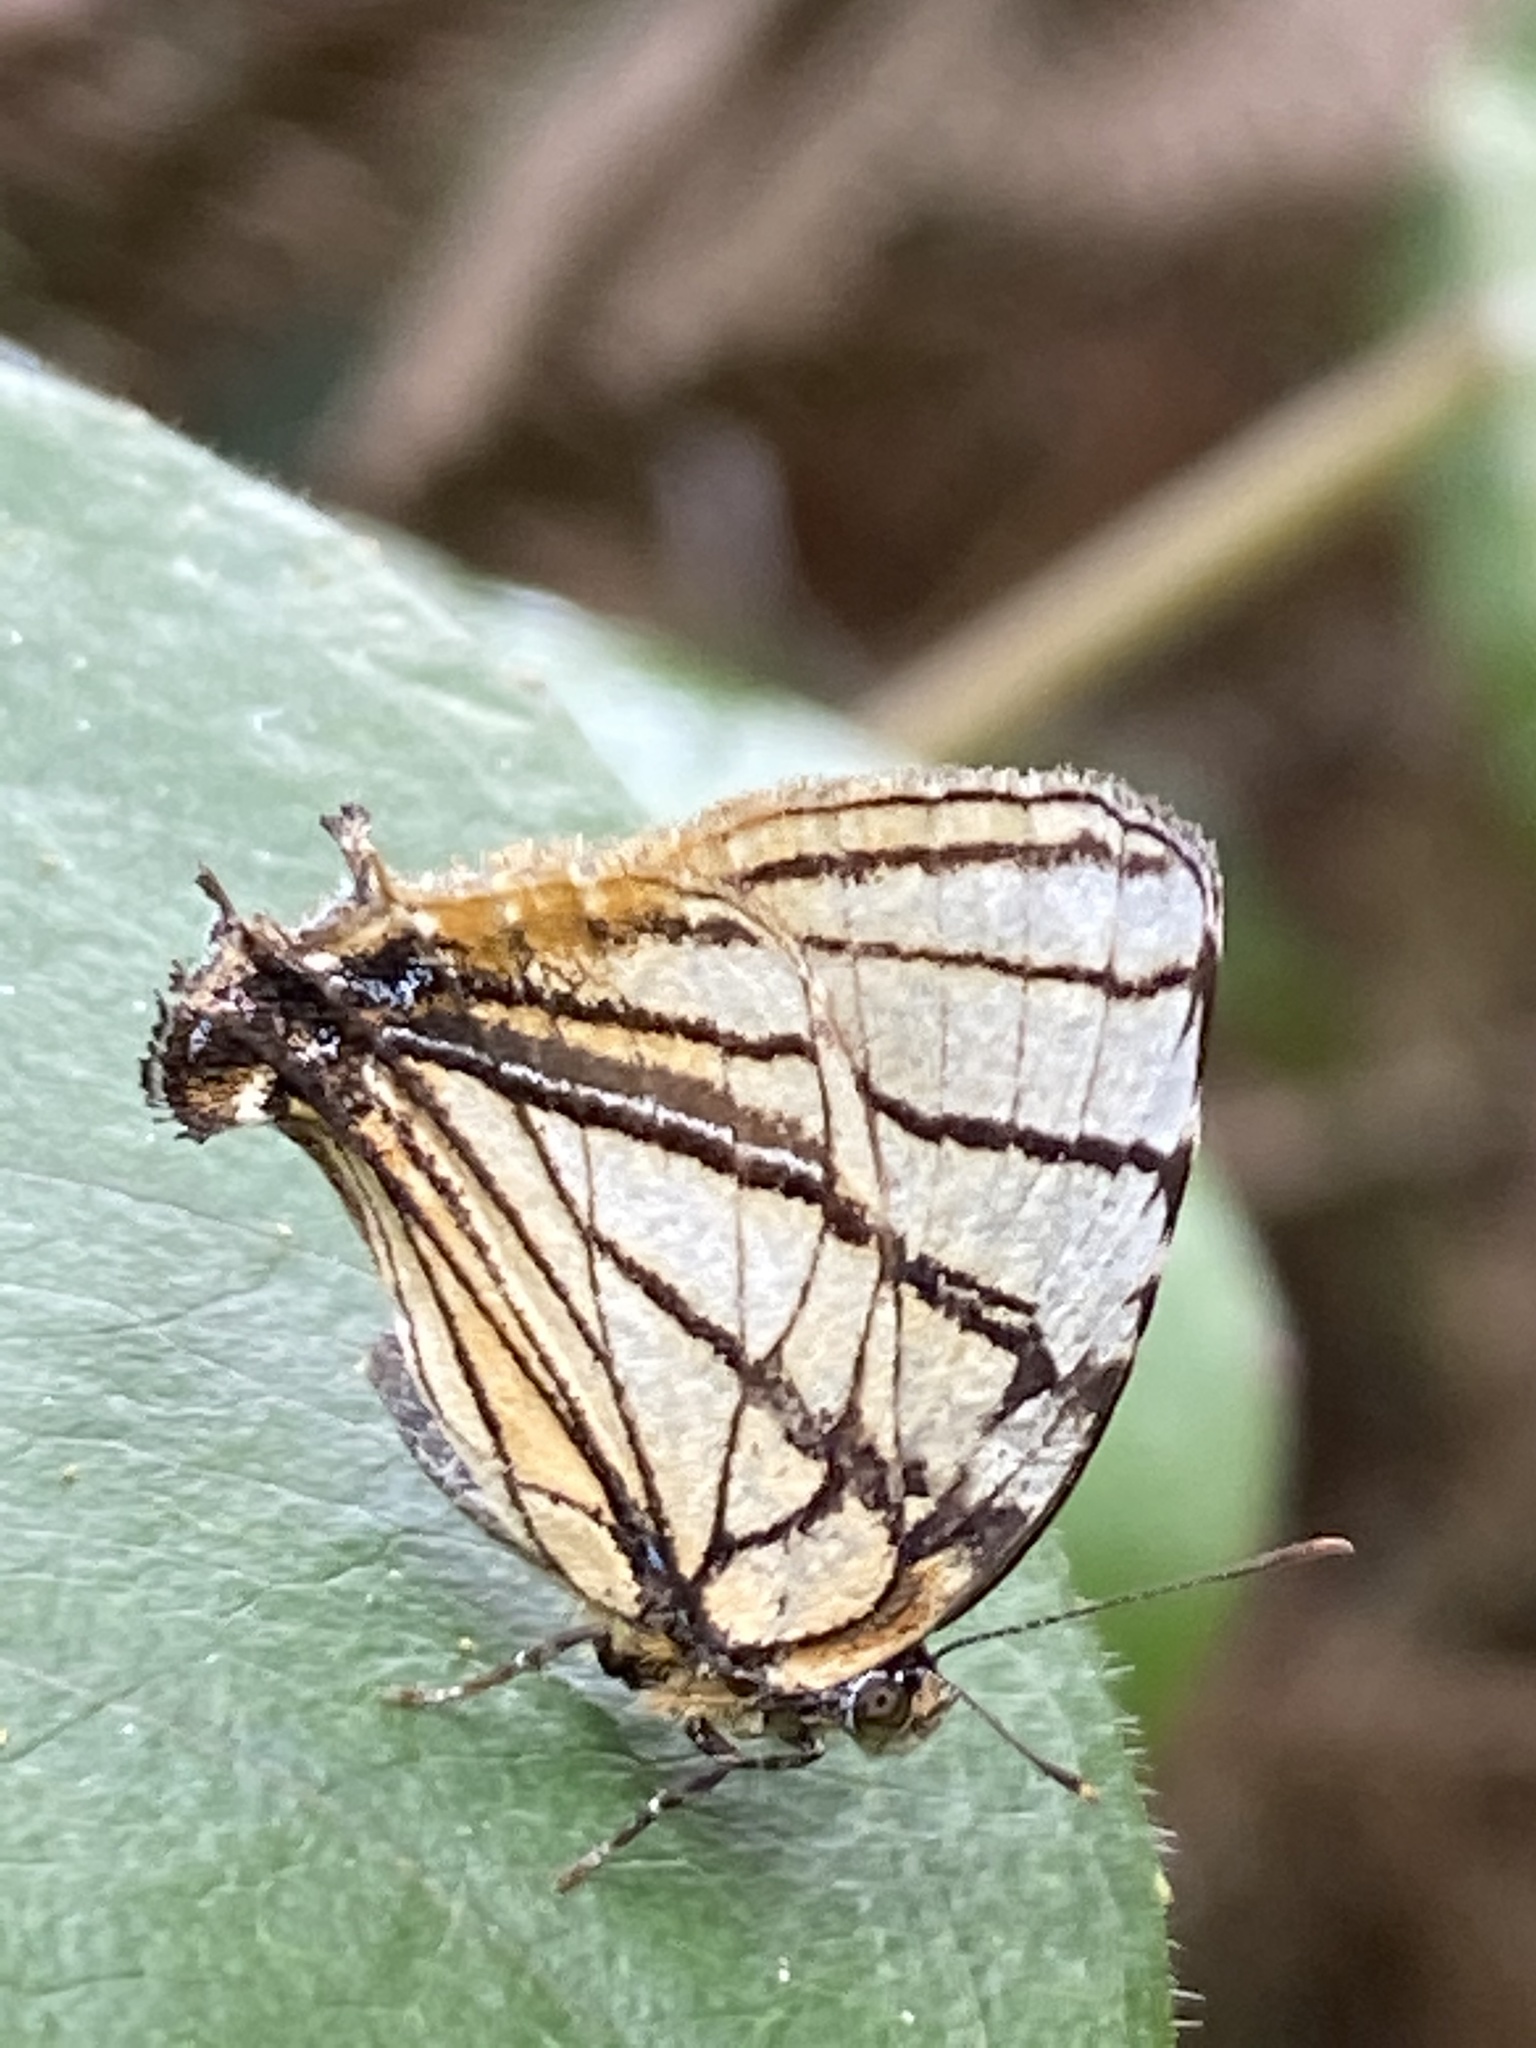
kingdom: Animalia
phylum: Arthropoda
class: Insecta
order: Lepidoptera
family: Lycaenidae
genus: Arawacus
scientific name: Arawacus melibaeus
